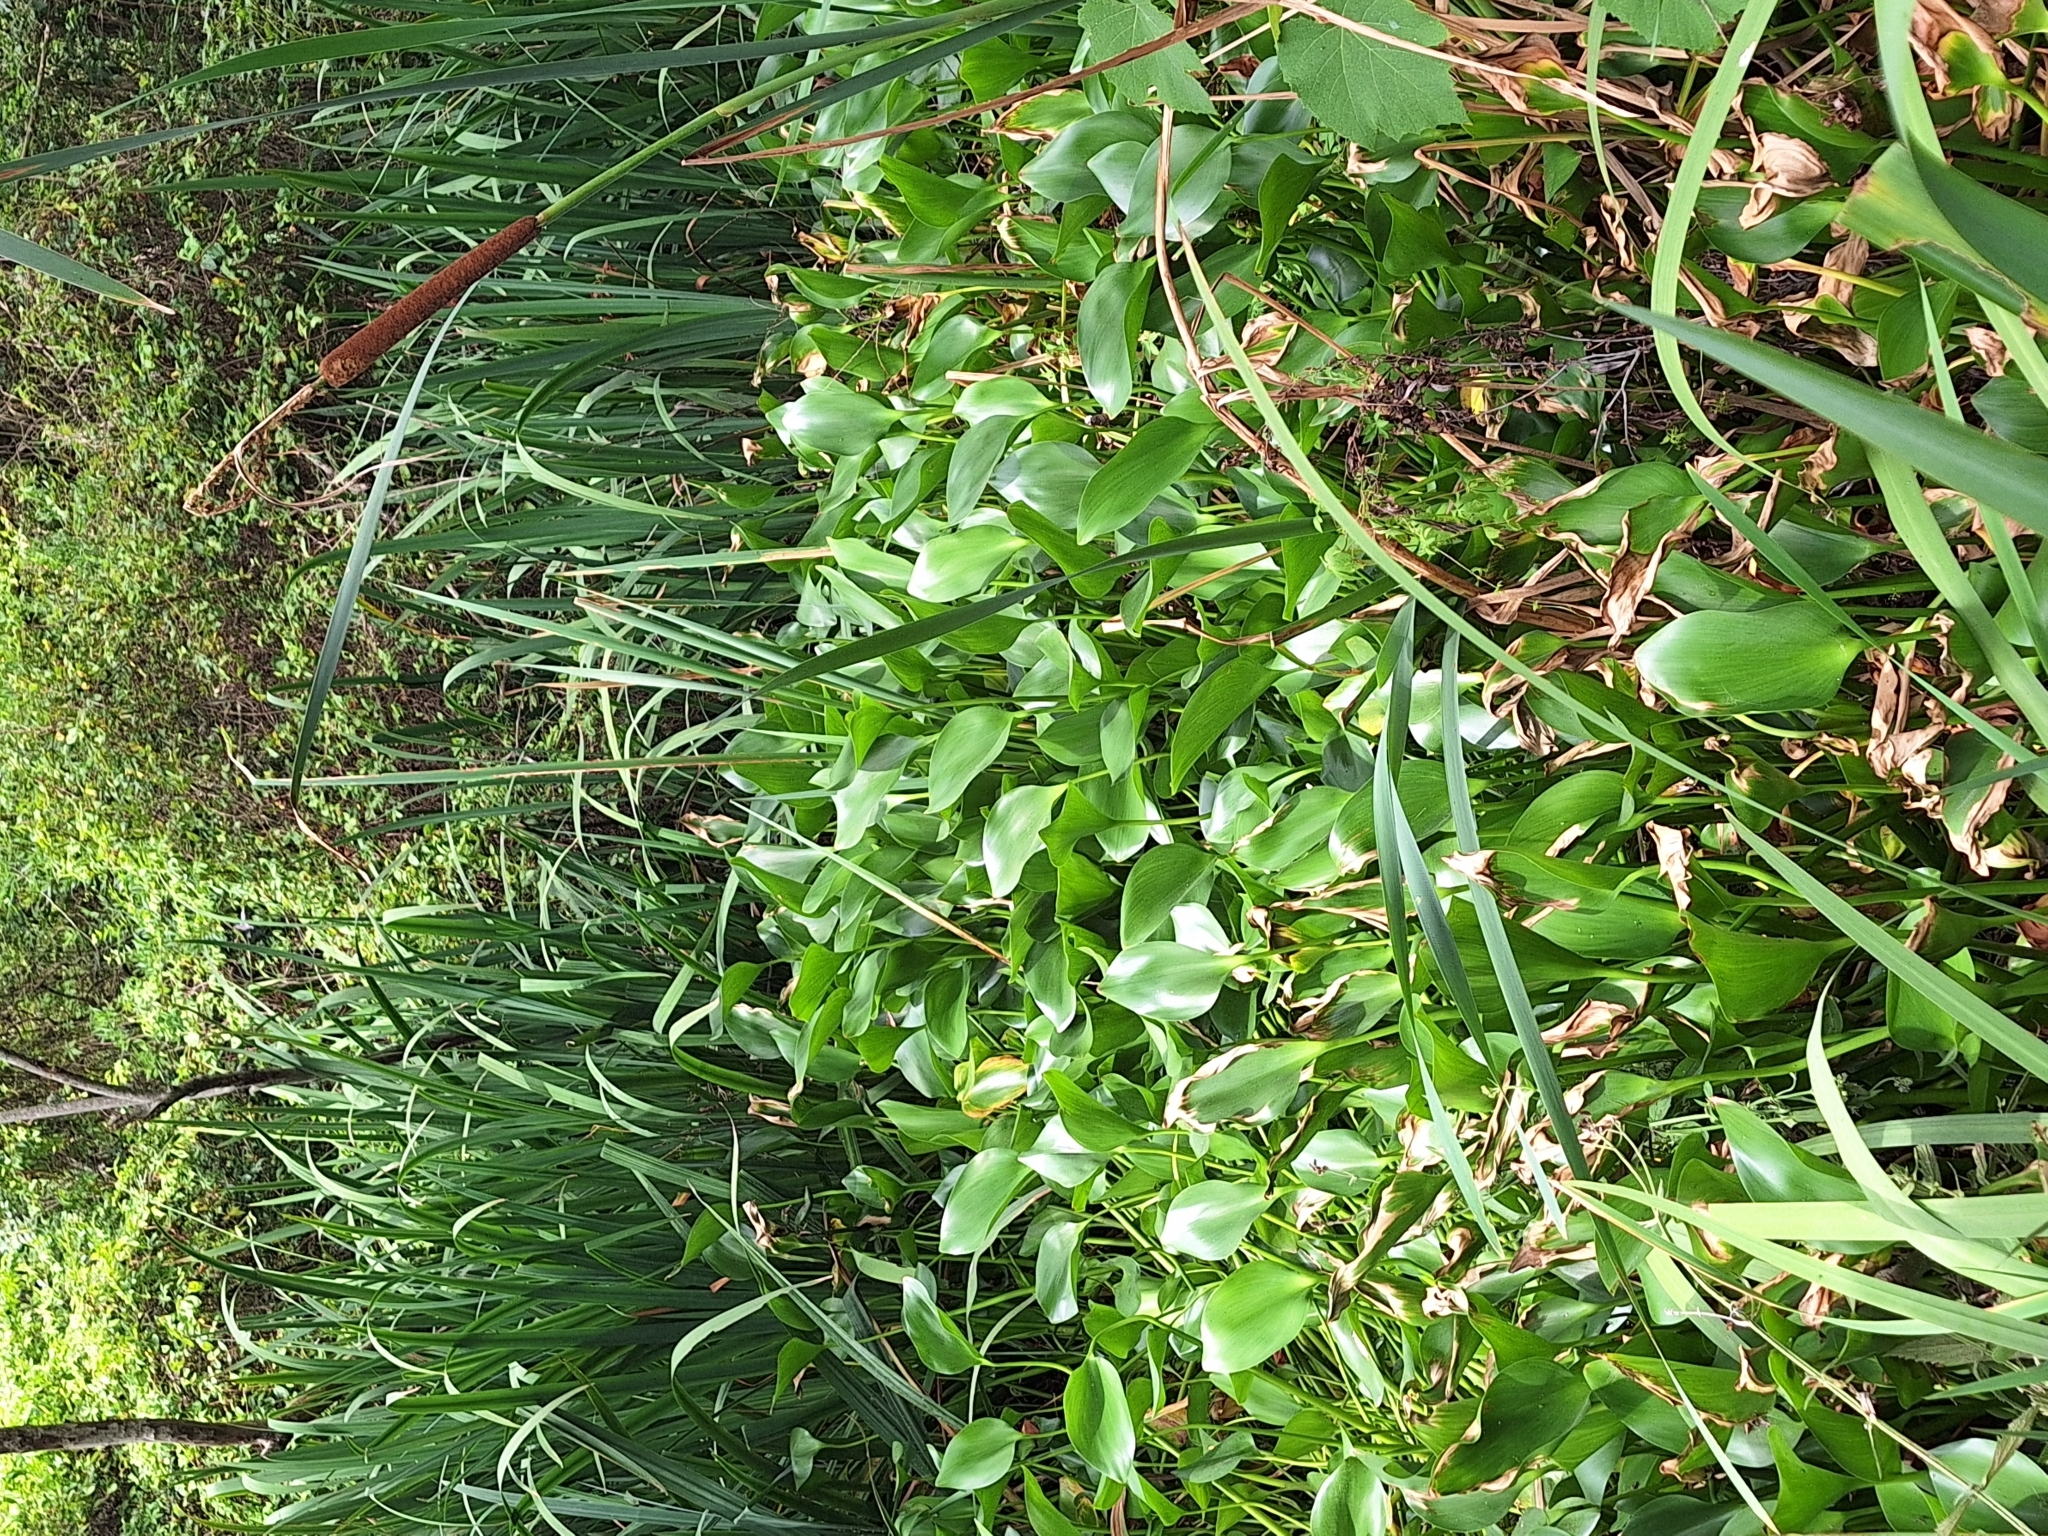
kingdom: Plantae
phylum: Tracheophyta
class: Liliopsida
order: Commelinales
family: Pontederiaceae
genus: Pontederia
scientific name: Pontederia crassipes
